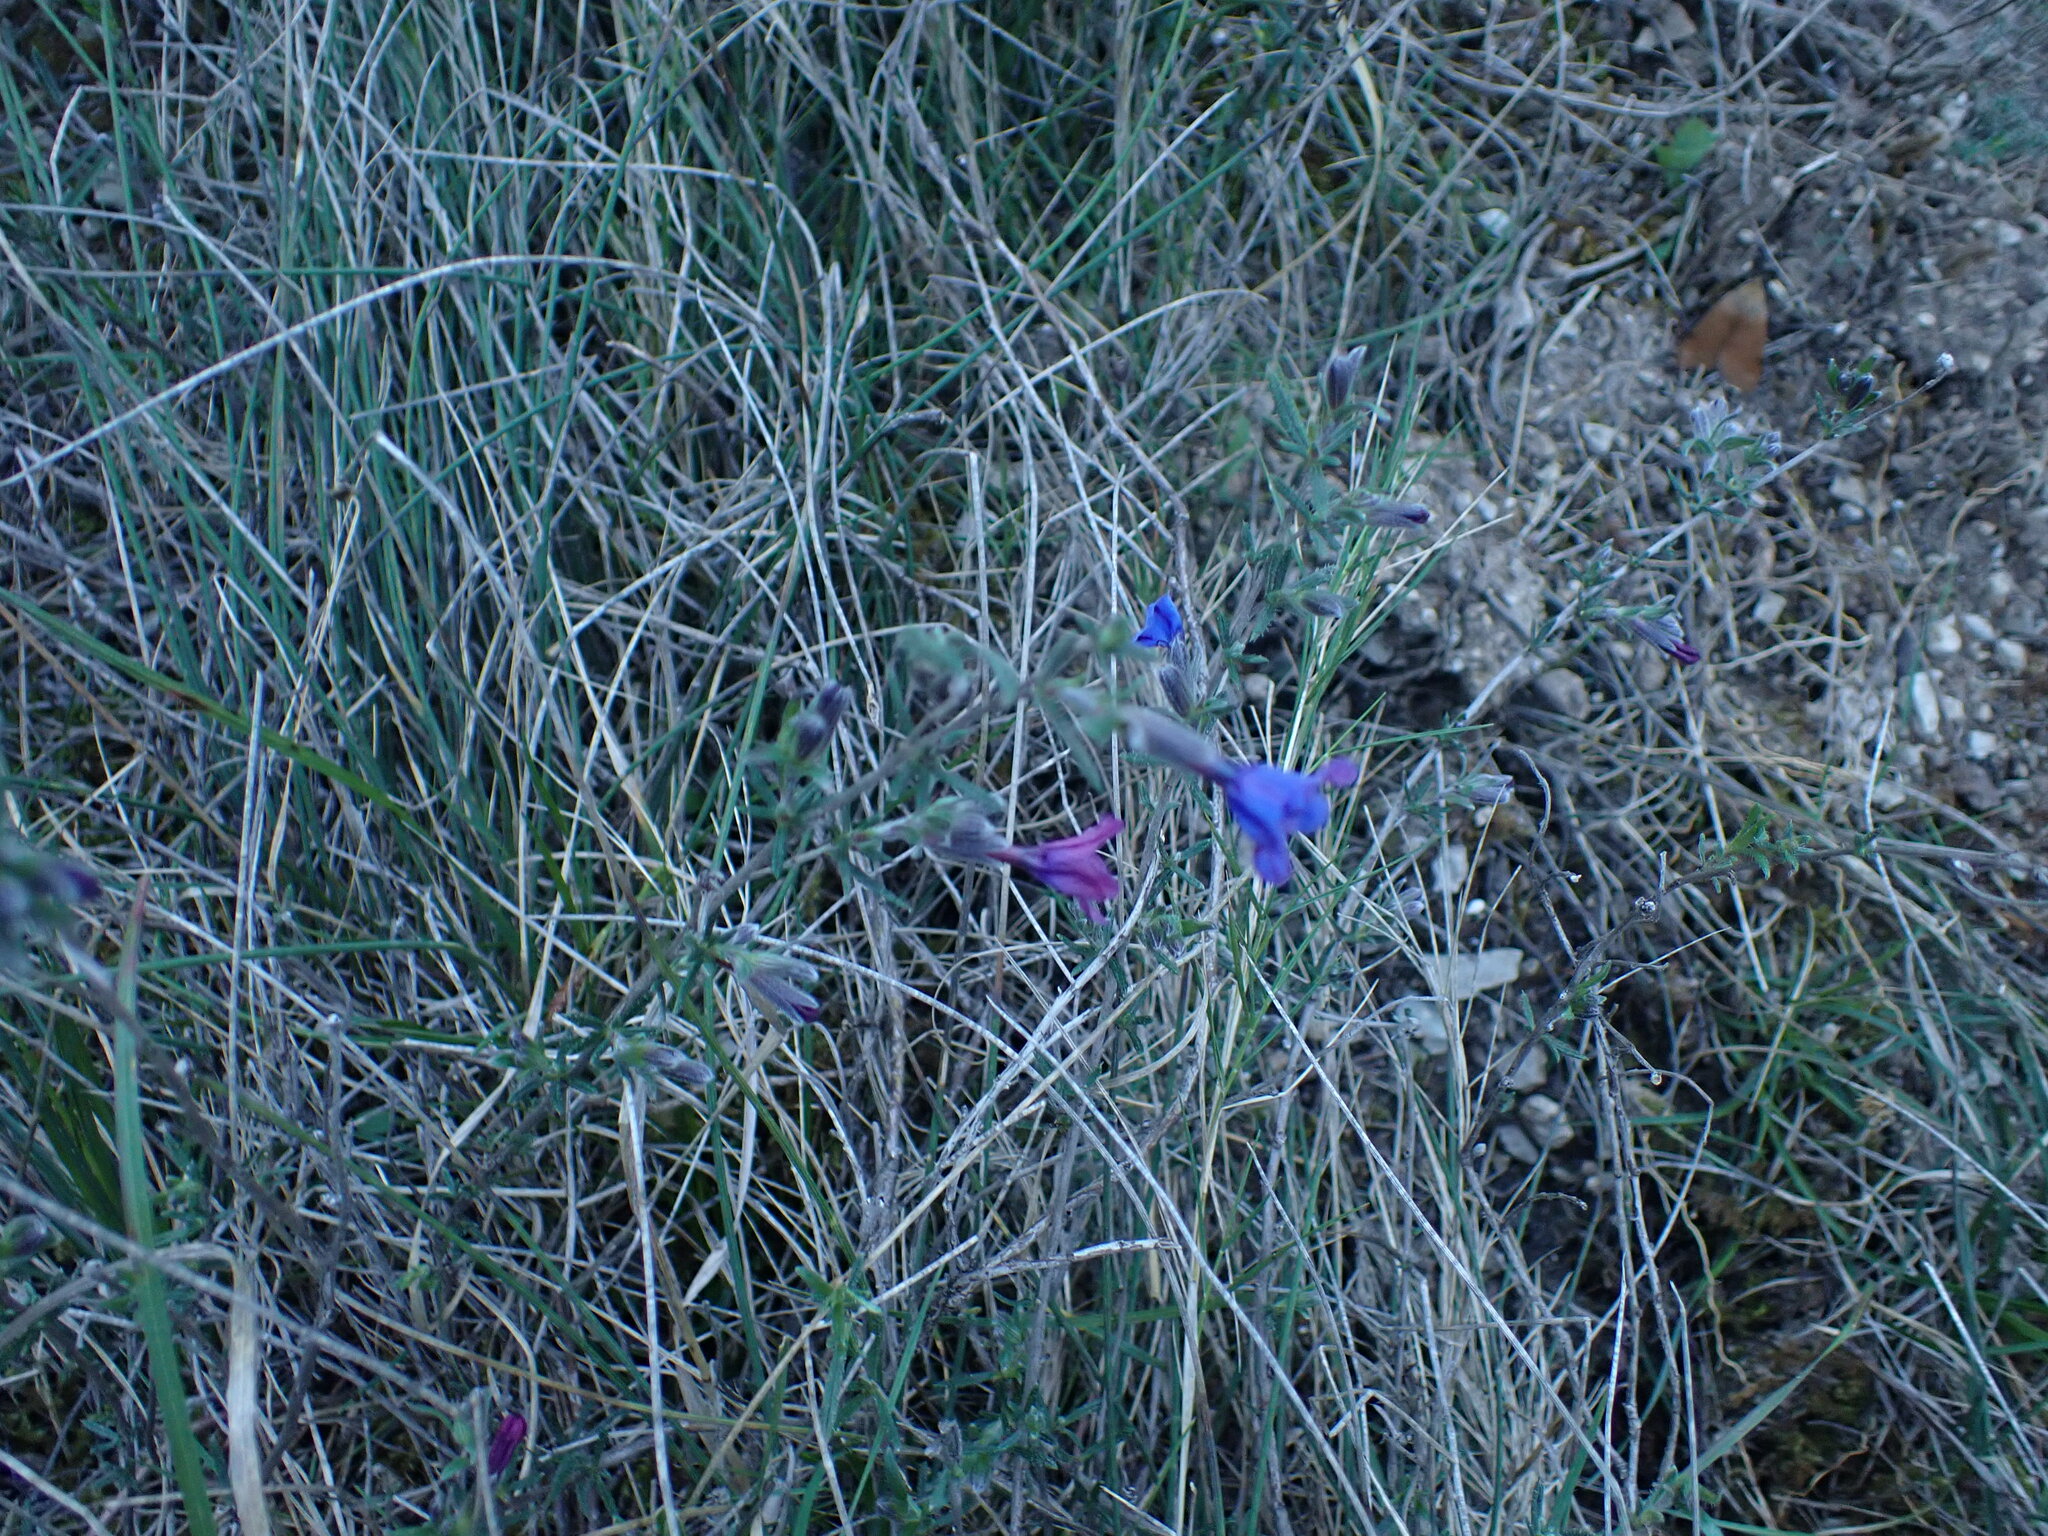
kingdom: Plantae
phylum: Tracheophyta
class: Magnoliopsida
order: Boraginales
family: Boraginaceae
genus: Lithodora
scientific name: Lithodora fruticosa
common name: Shrubby gromwell
